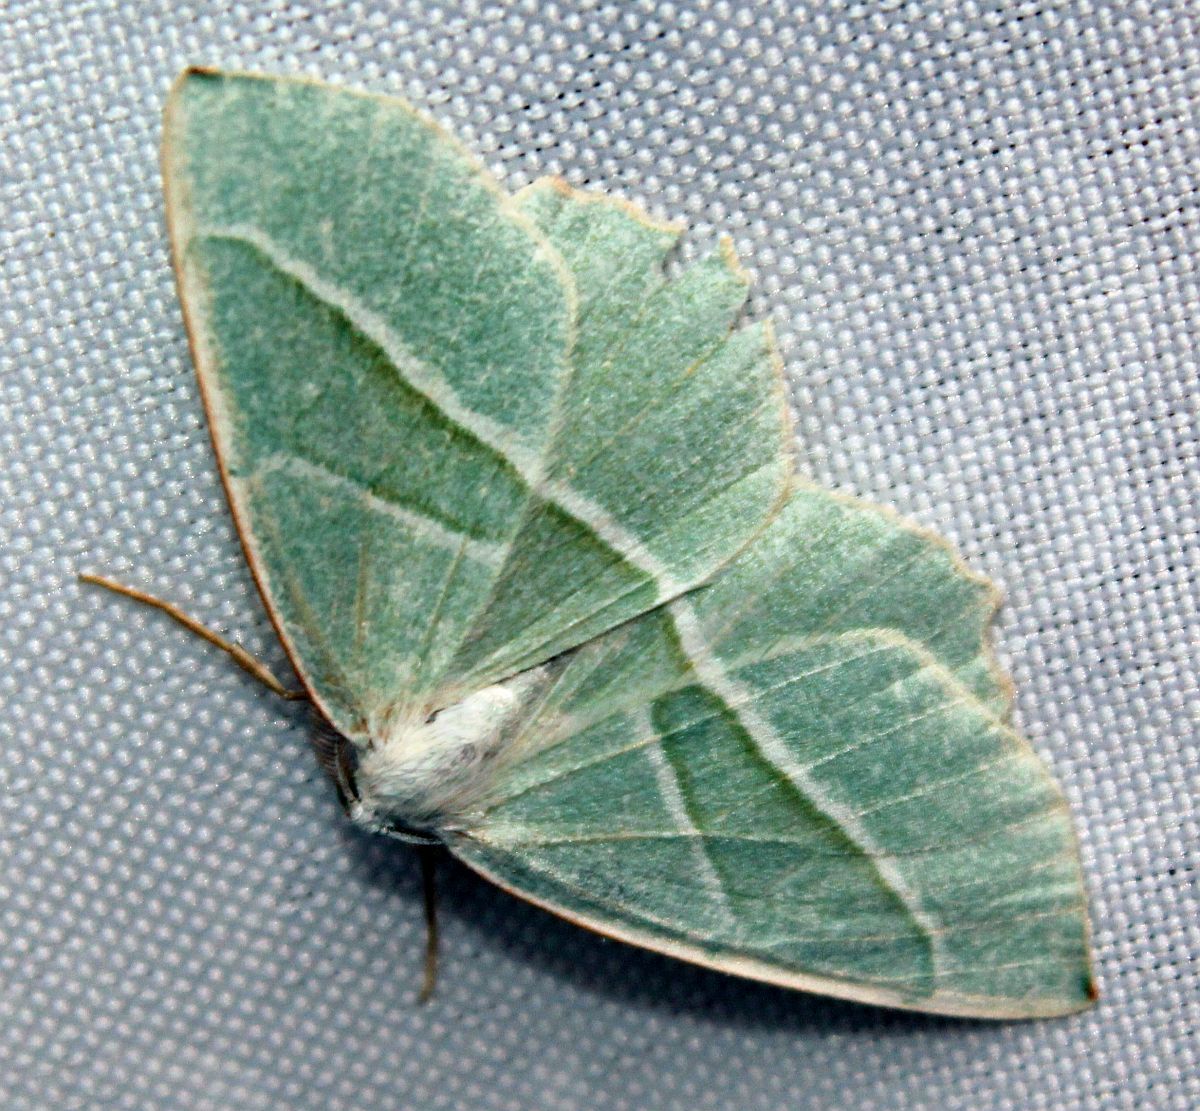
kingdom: Animalia
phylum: Arthropoda
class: Insecta
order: Lepidoptera
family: Geometridae
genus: Campaea
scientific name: Campaea margaritaria
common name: Light emerald
